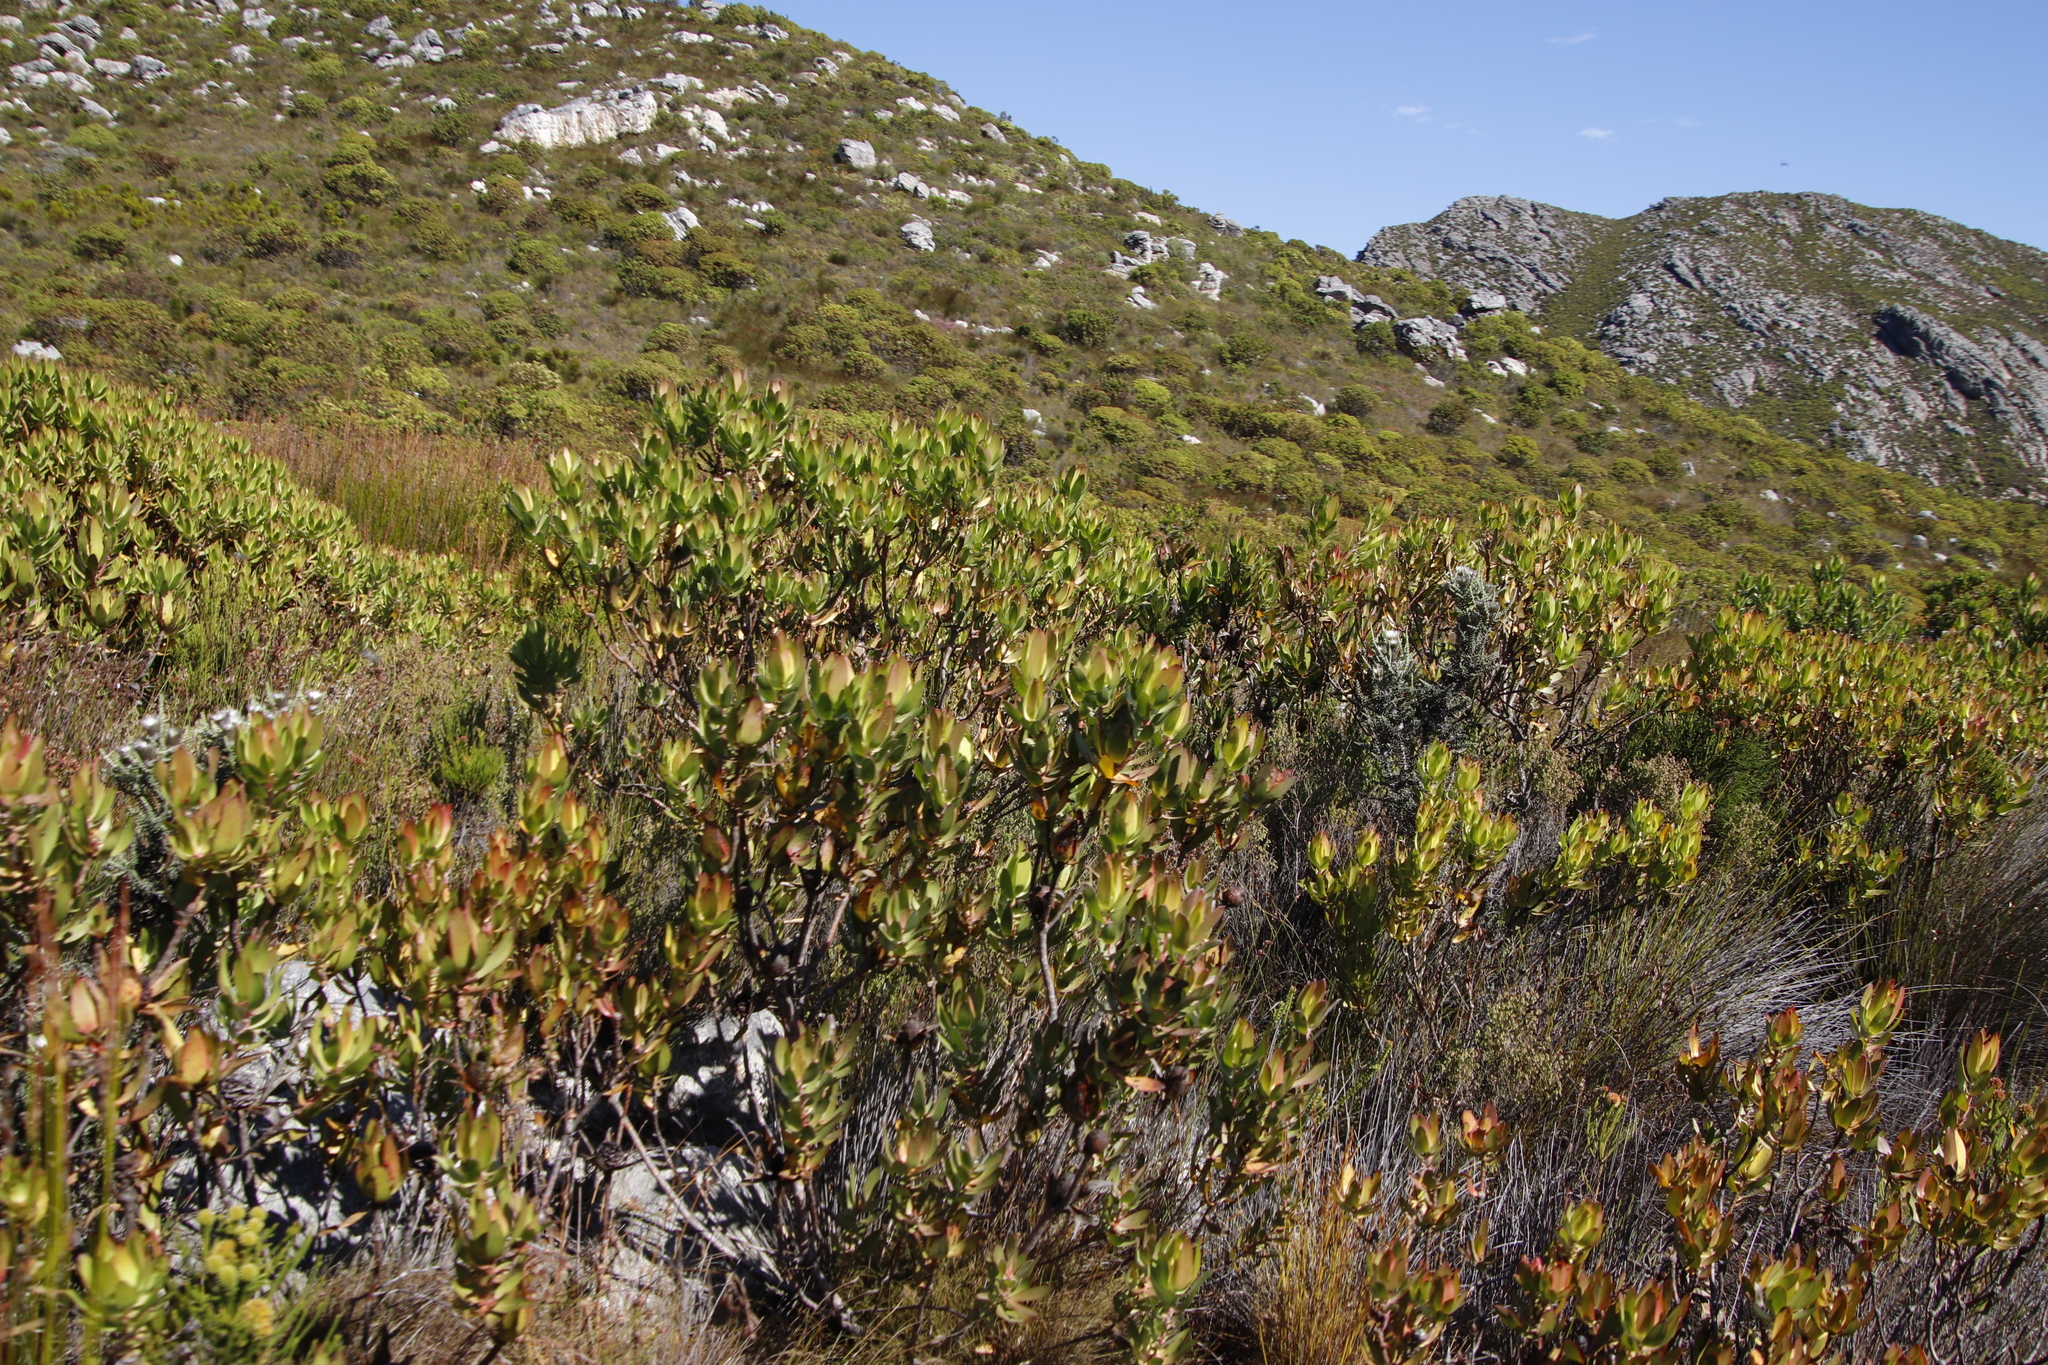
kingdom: Plantae
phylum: Tracheophyta
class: Magnoliopsida
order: Proteales
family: Proteaceae
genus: Leucadendron
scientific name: Leucadendron laureolum
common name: Golden sunshinebush
